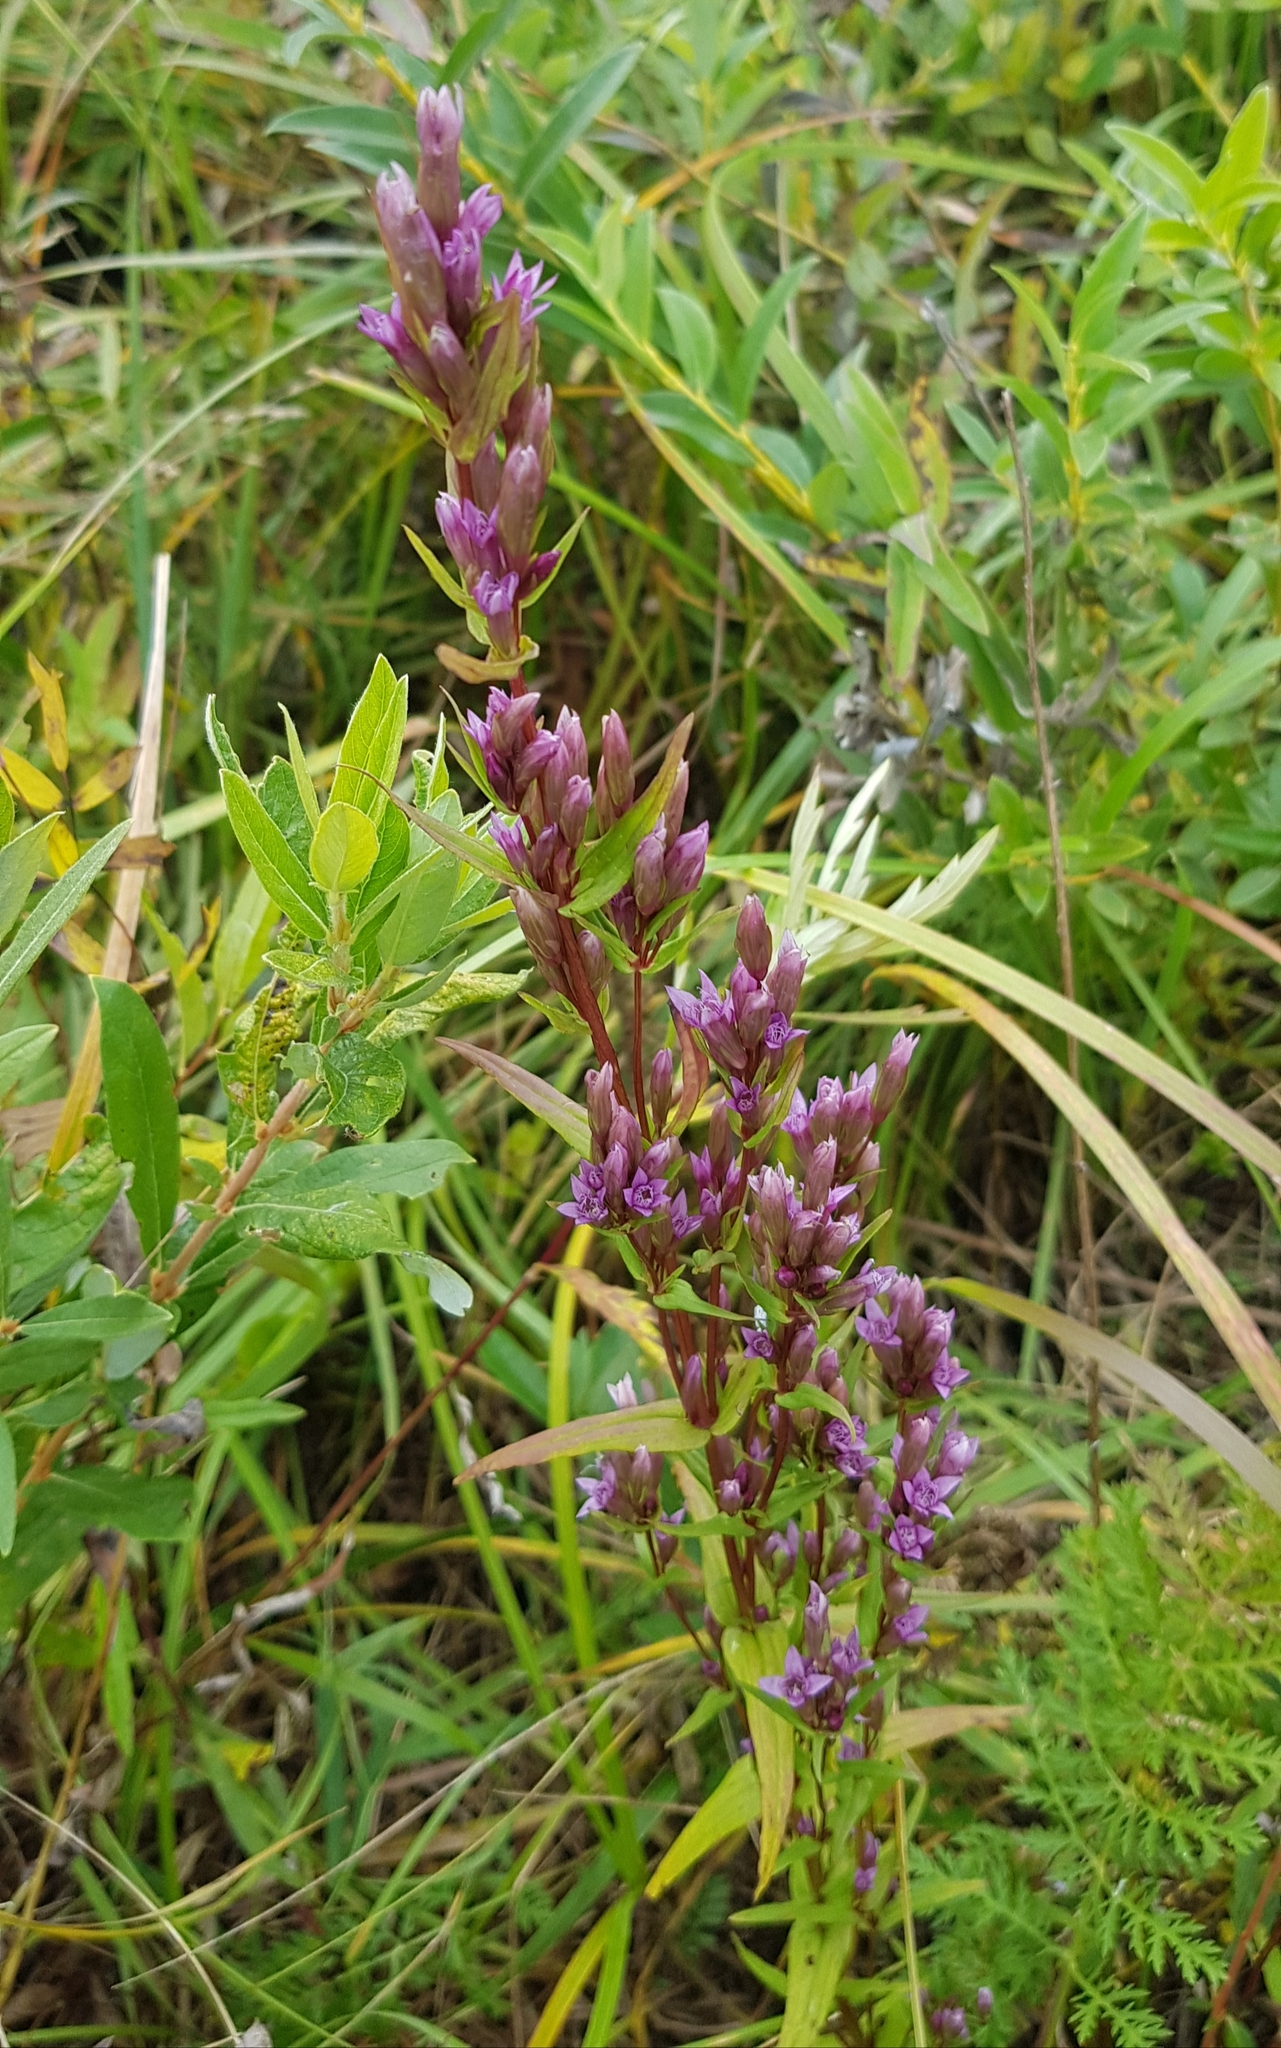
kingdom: Plantae
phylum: Tracheophyta
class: Magnoliopsida
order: Gentianales
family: Gentianaceae
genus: Gentianella
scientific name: Gentianella amarella
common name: Autumn gentian
